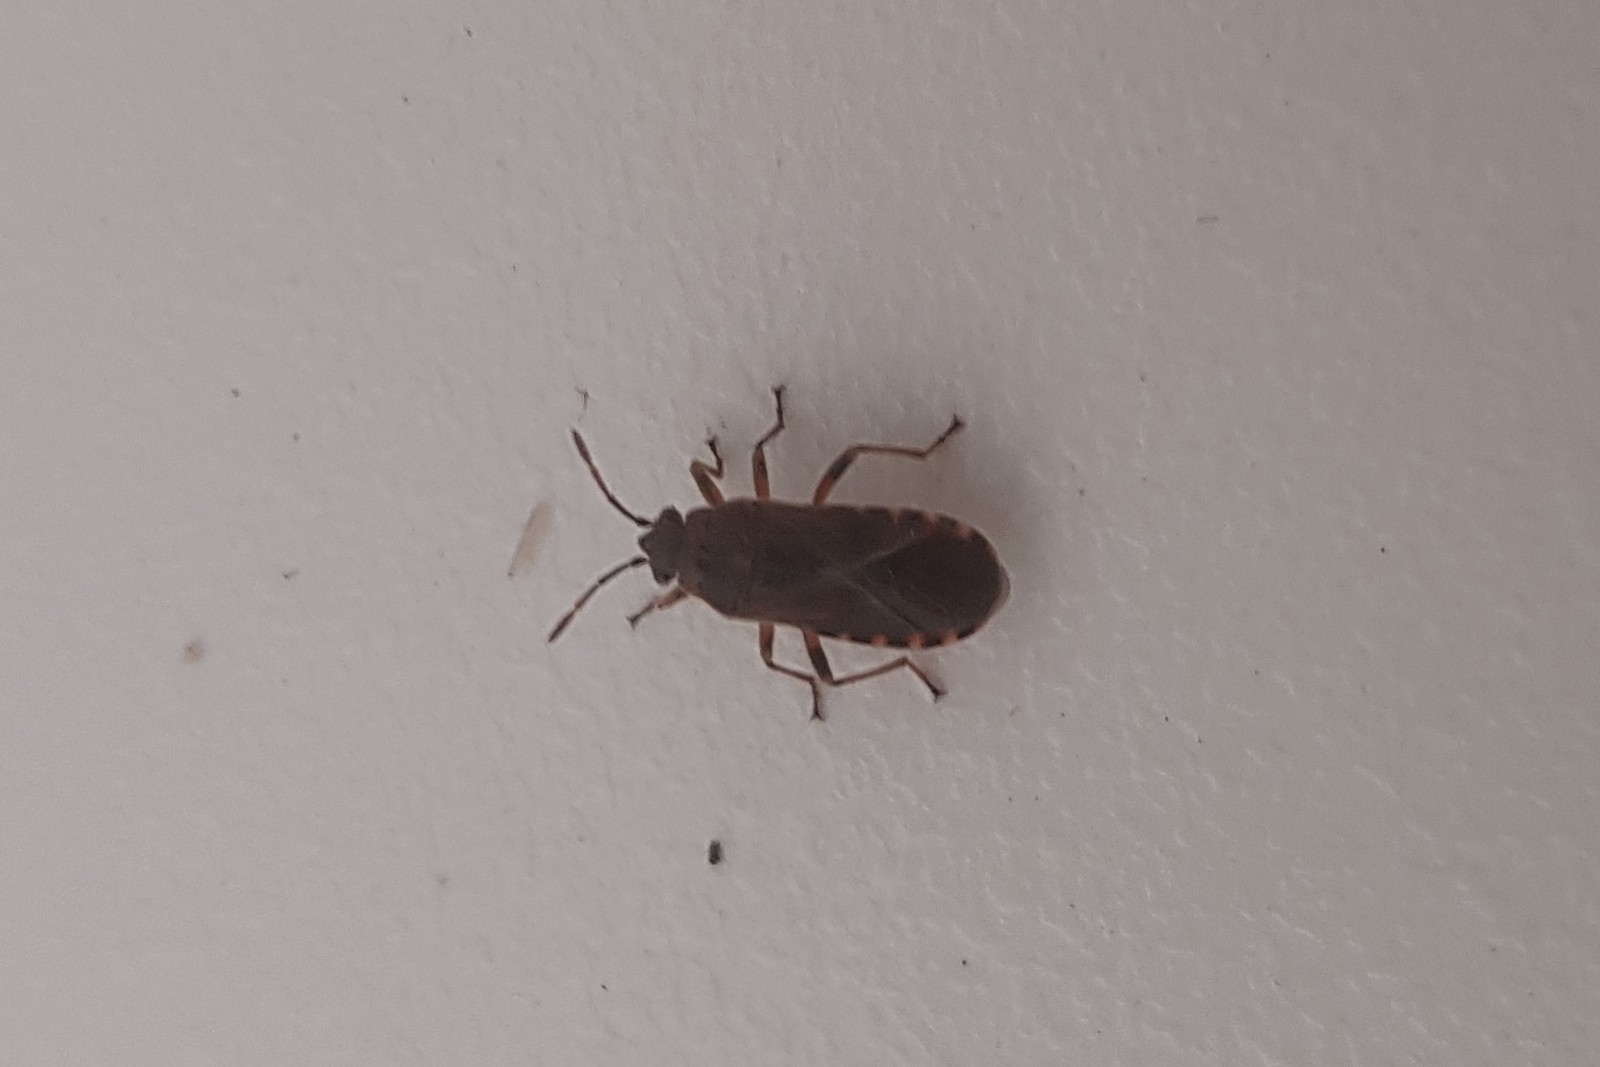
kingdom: Animalia
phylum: Arthropoda
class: Insecta
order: Hemiptera
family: Lygaeidae
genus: Arocatus
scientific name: Arocatus melanocephalus
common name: Lygaeid bug
